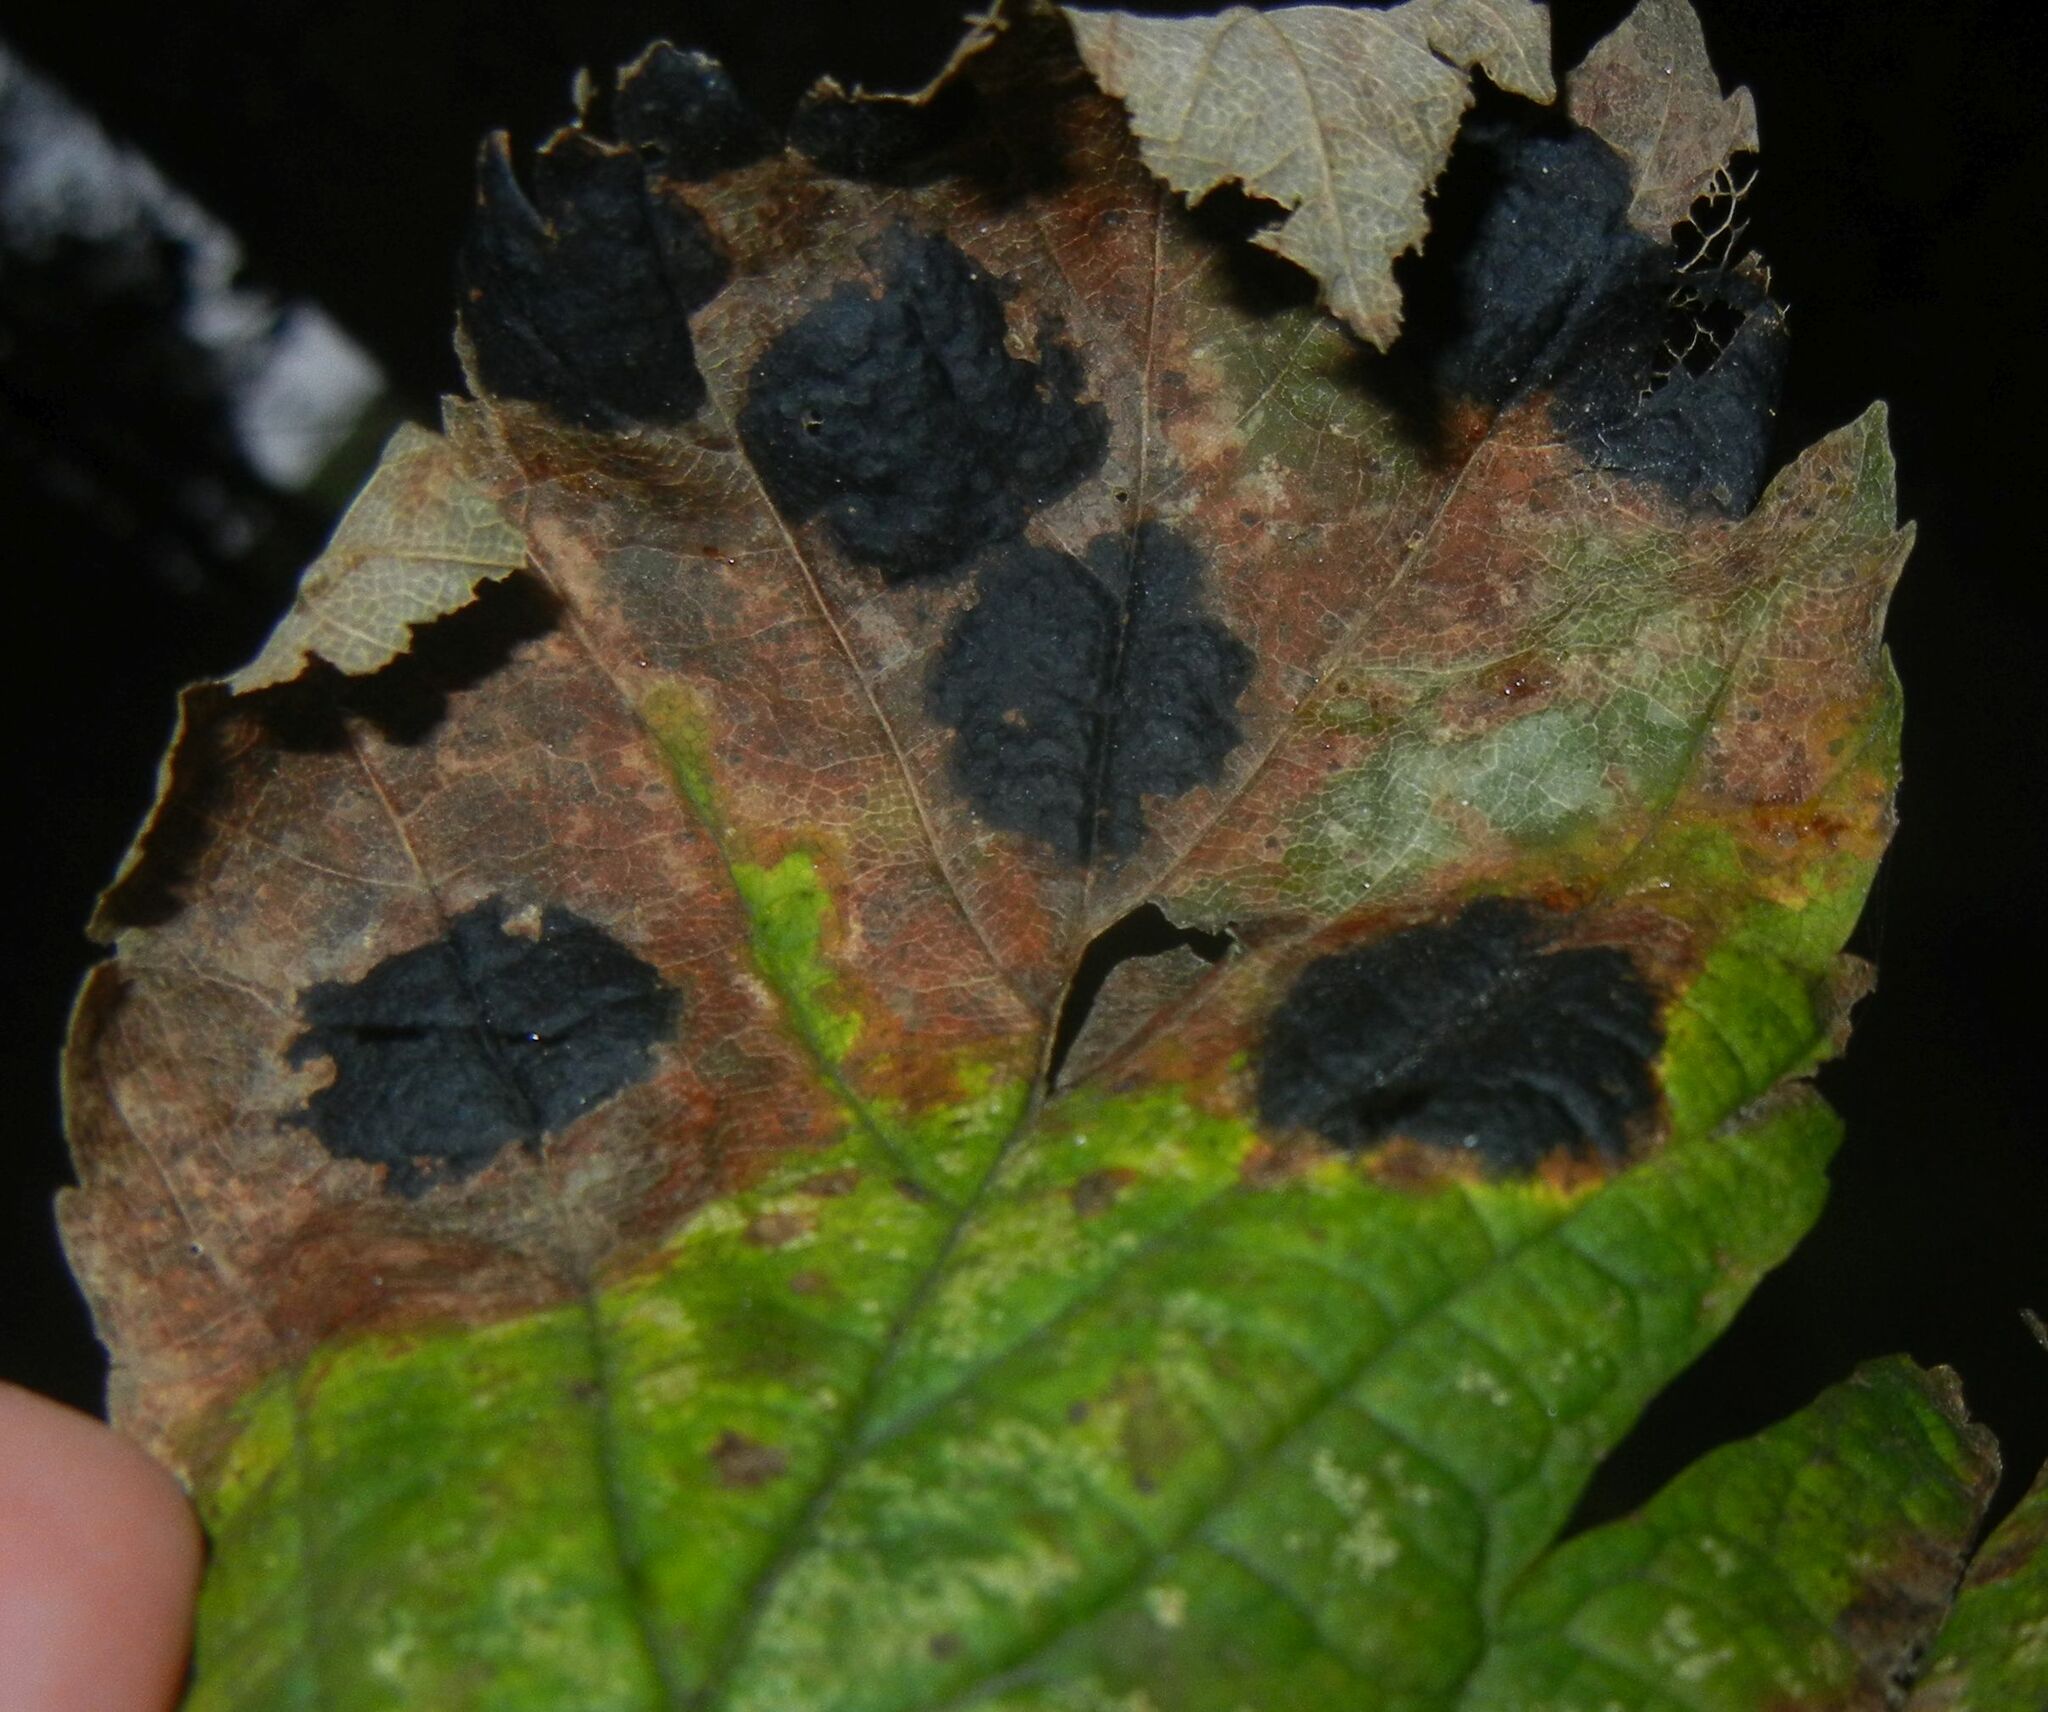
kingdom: Fungi
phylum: Ascomycota
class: Leotiomycetes
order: Rhytismatales
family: Rhytismataceae
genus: Rhytisma
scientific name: Rhytisma acerinum
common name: European tar spot
